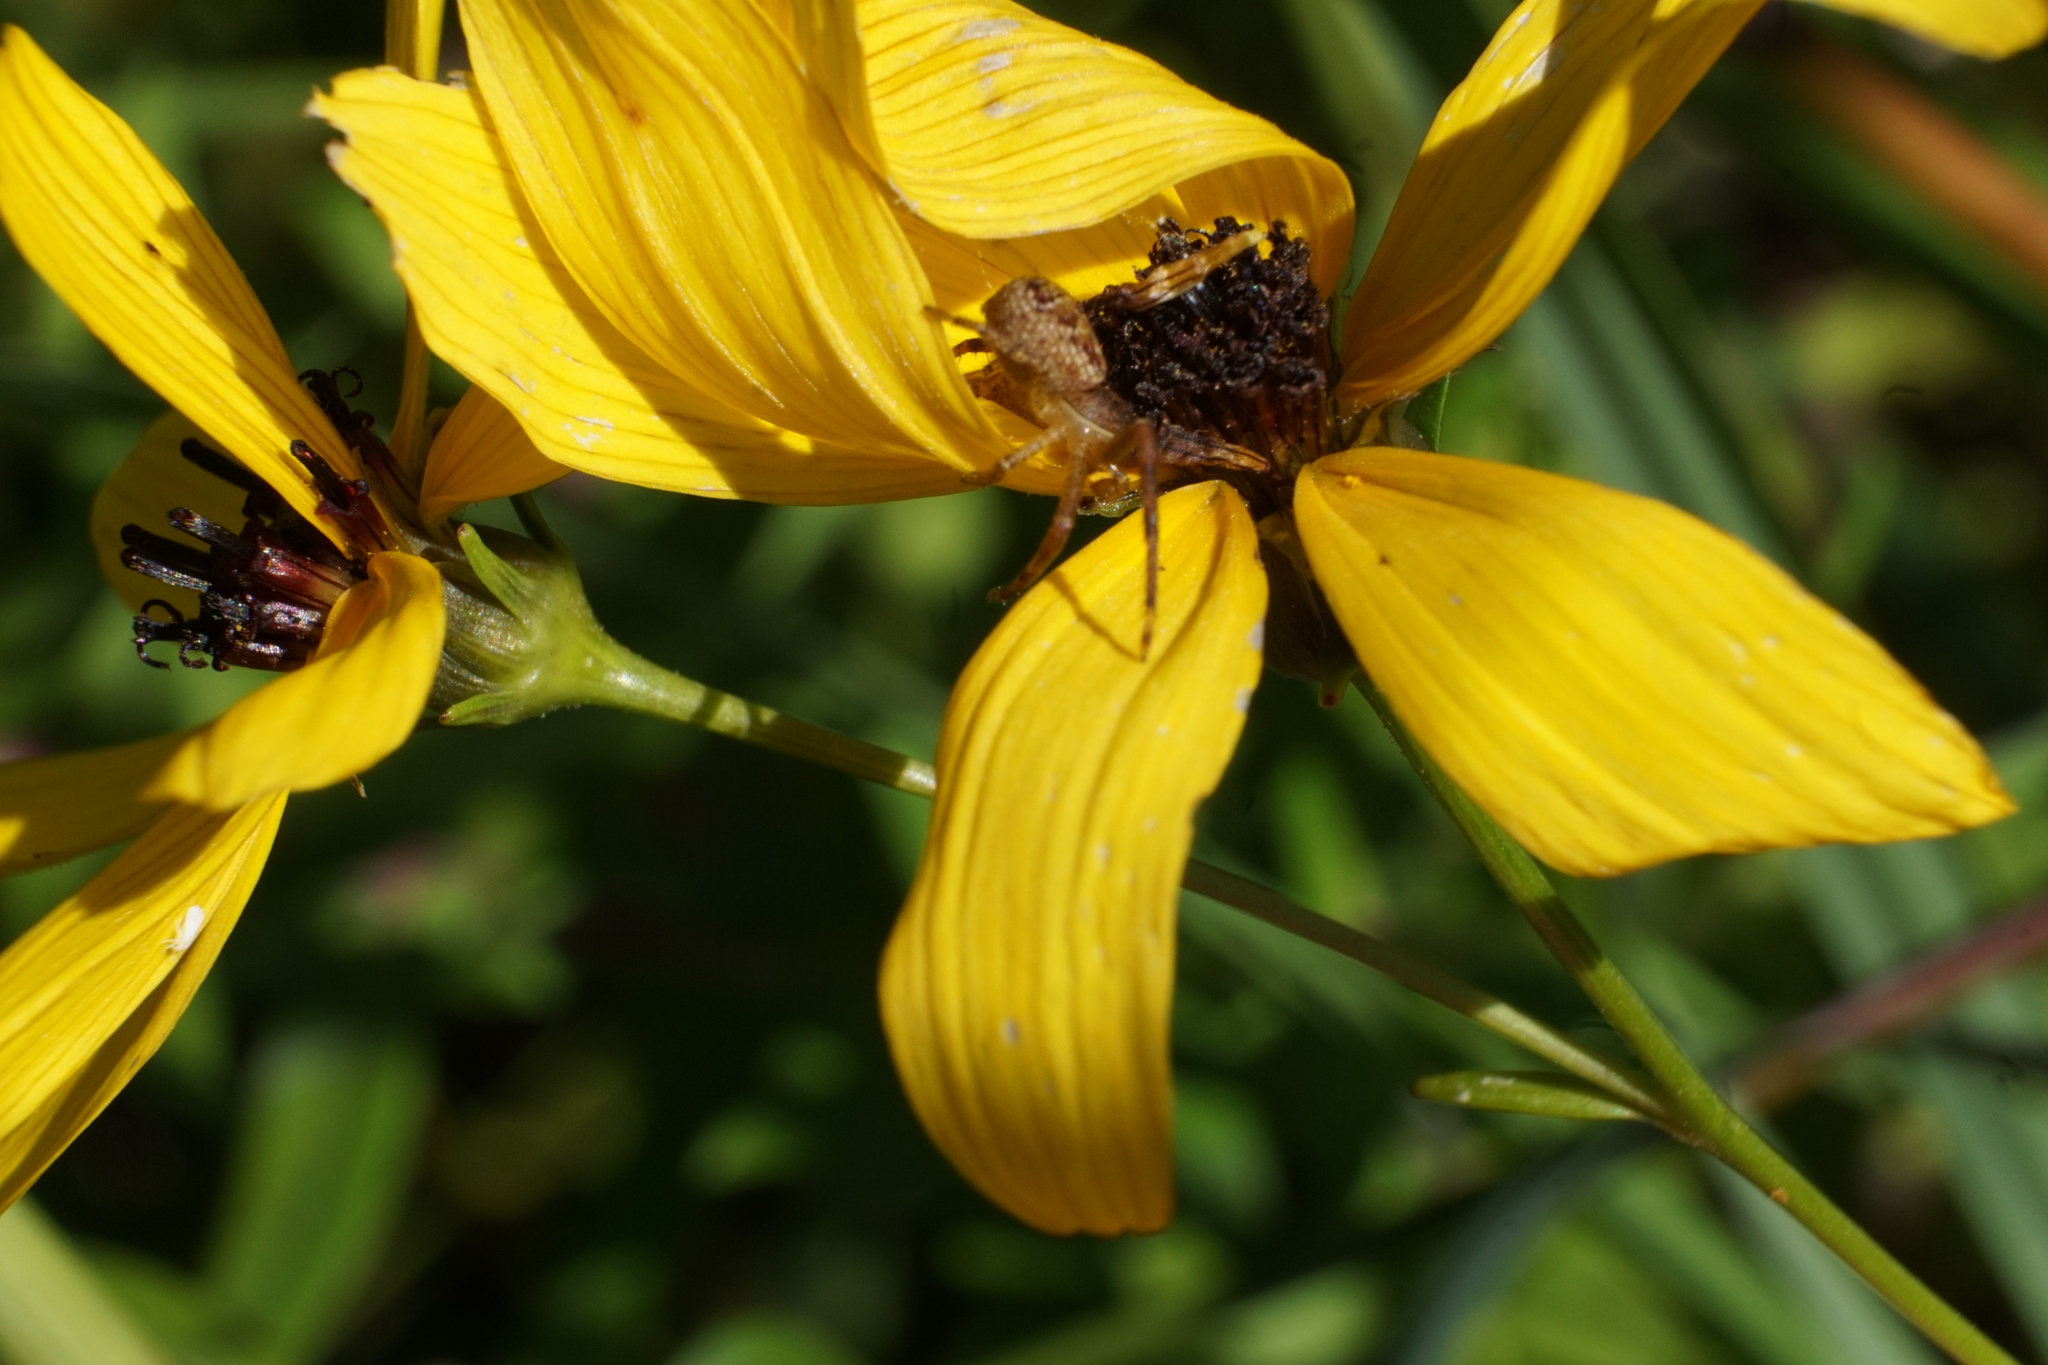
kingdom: Animalia
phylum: Arthropoda
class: Arachnida
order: Araneae
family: Thomisidae
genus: Xysticus
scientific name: Xysticus funestus
